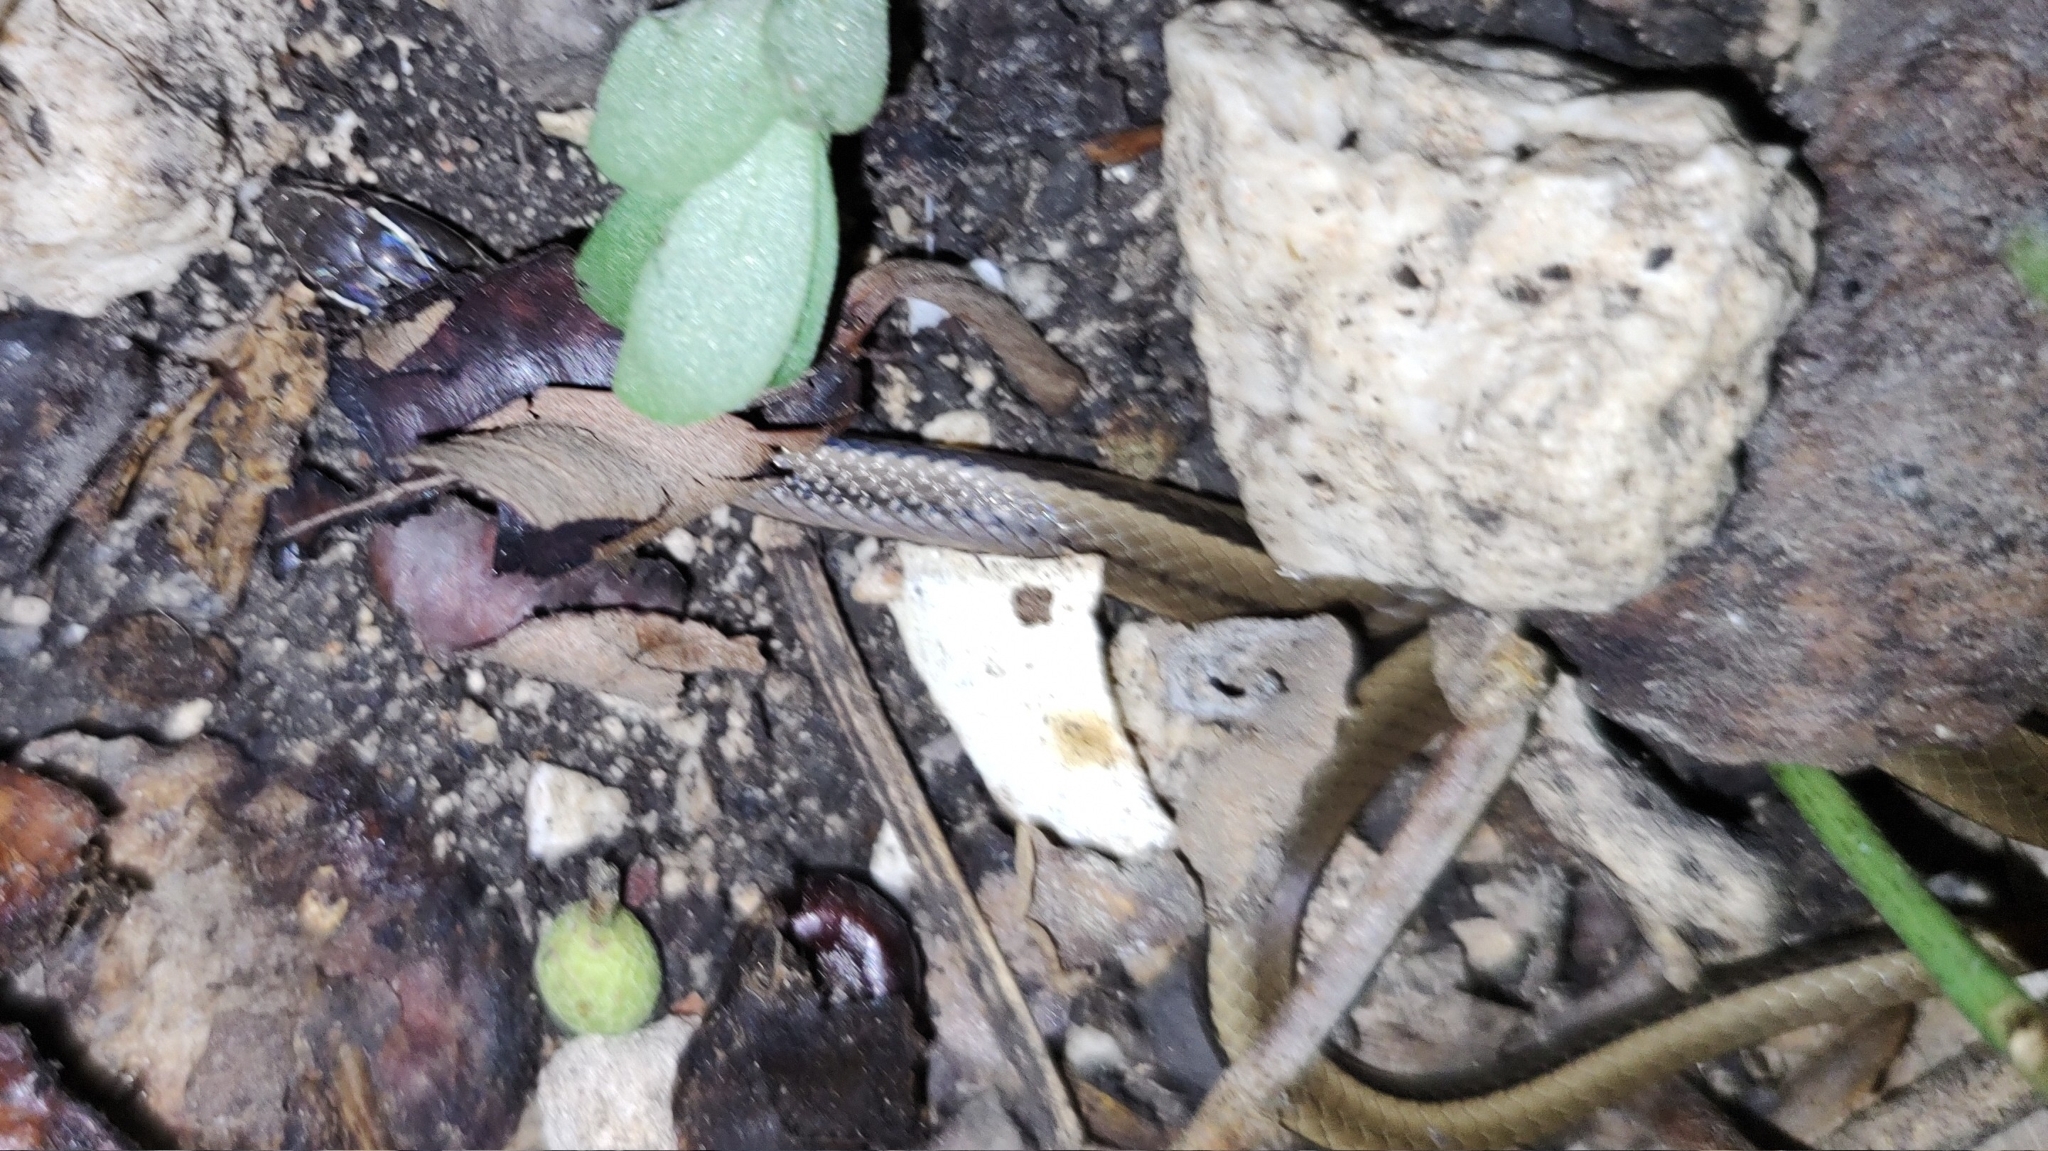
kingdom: Animalia
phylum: Chordata
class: Squamata
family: Colubridae
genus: Coniophanes
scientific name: Coniophanes imperialis
